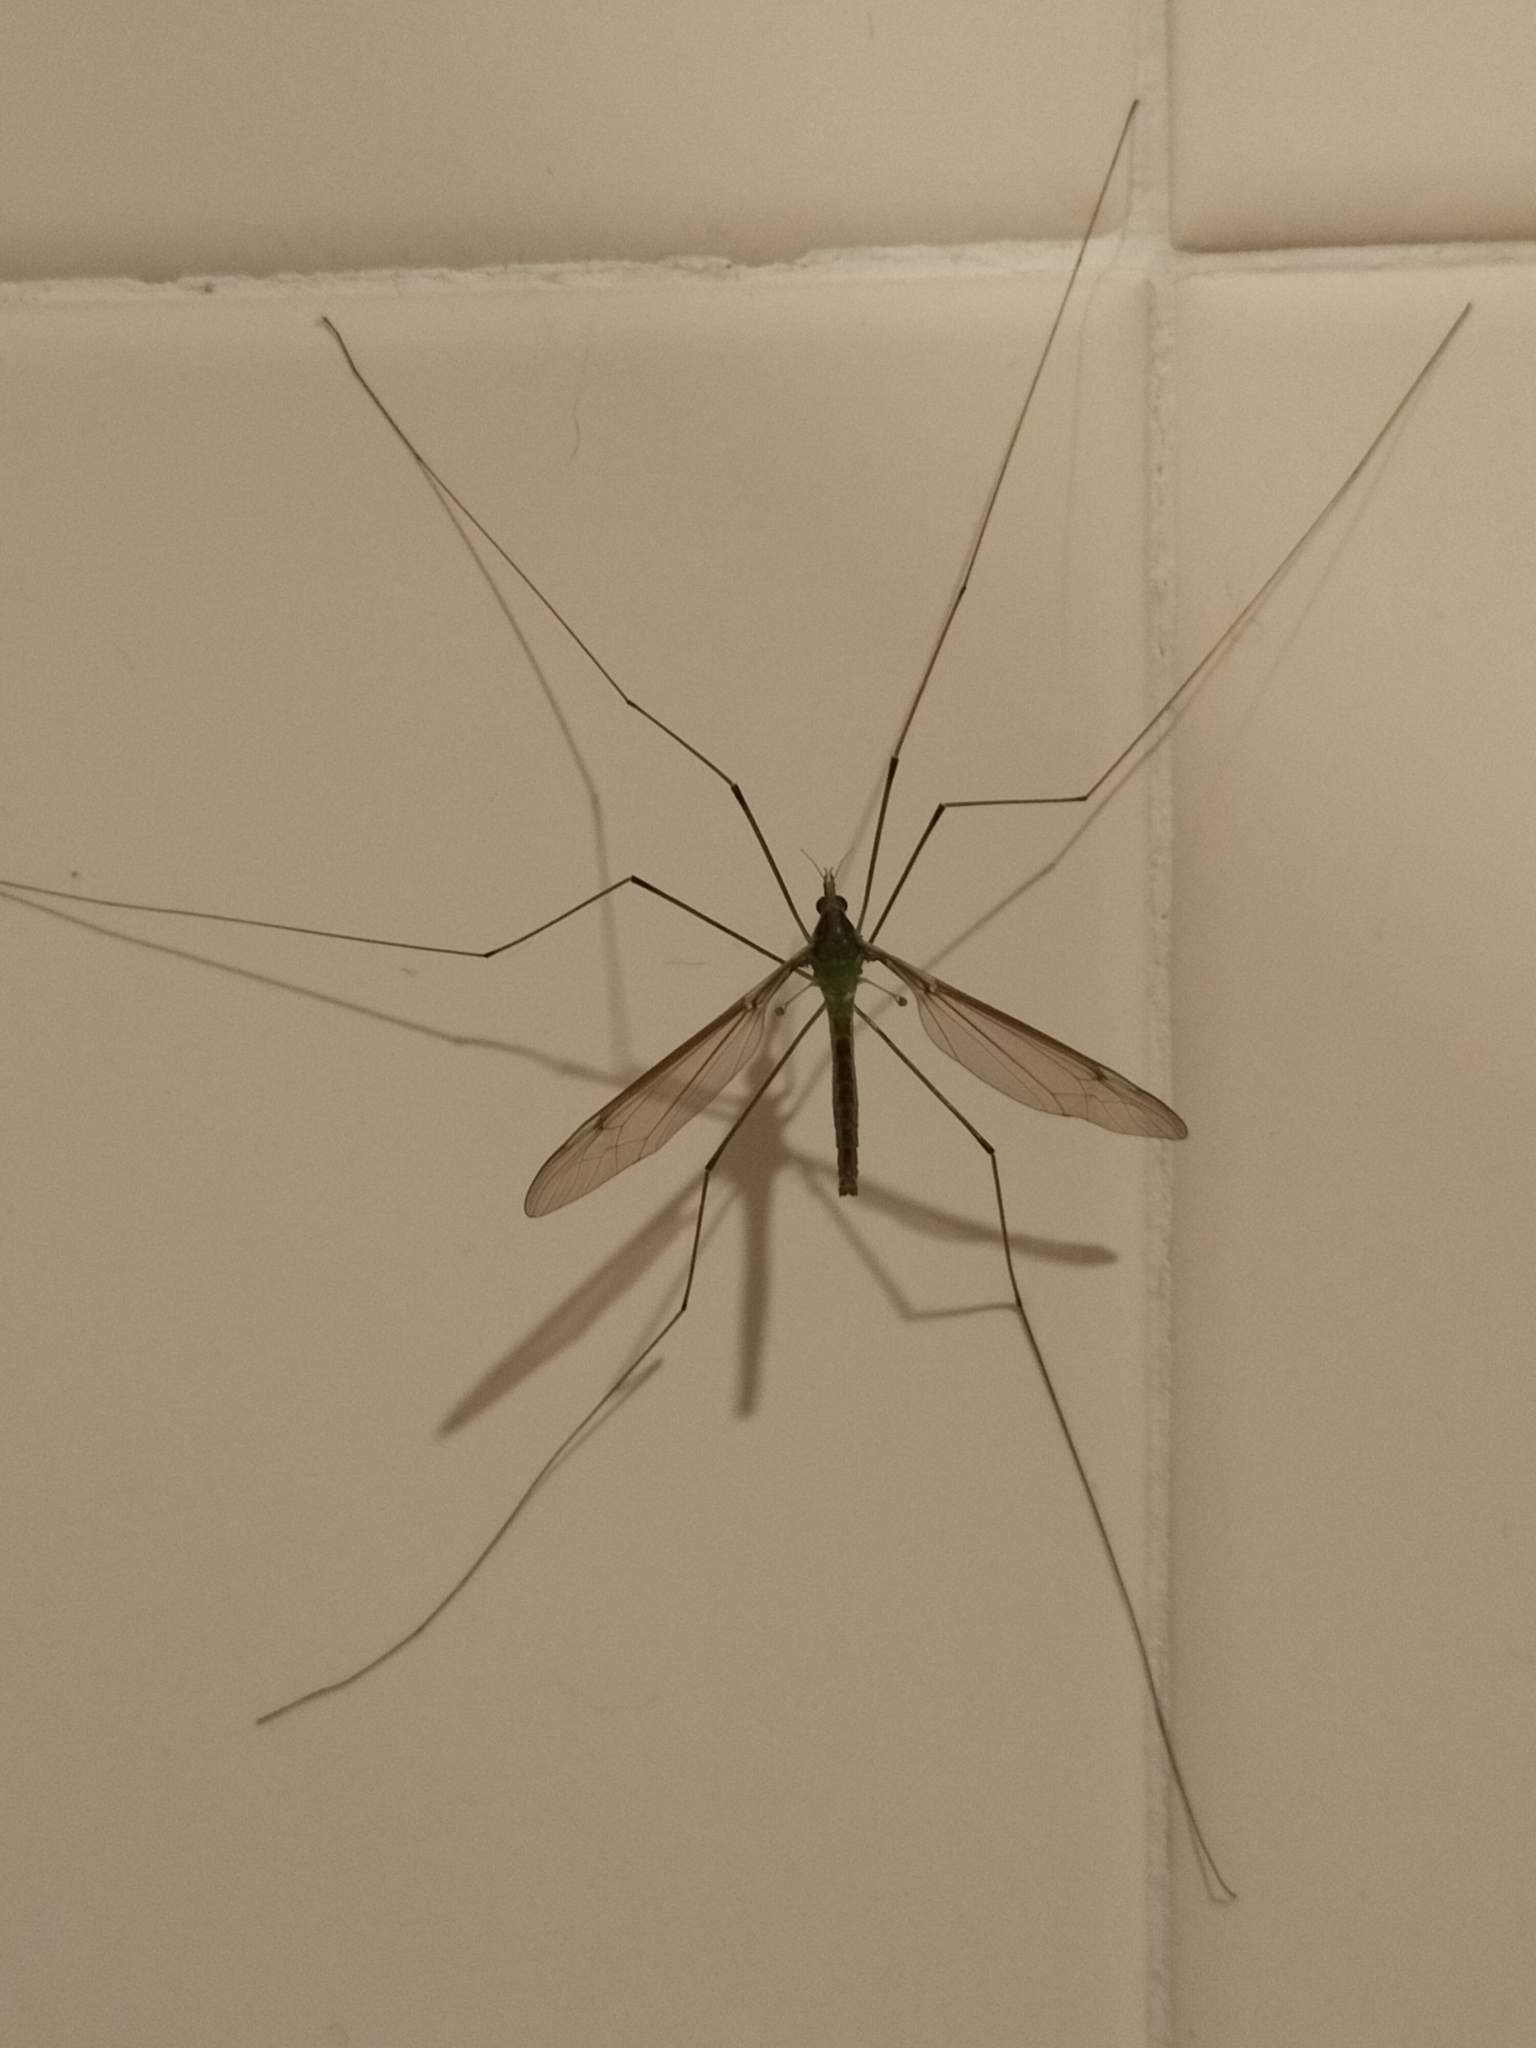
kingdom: Animalia
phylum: Arthropoda
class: Insecta
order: Diptera
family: Tipulidae
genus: Leptotarsus
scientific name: Leptotarsus albistigma
